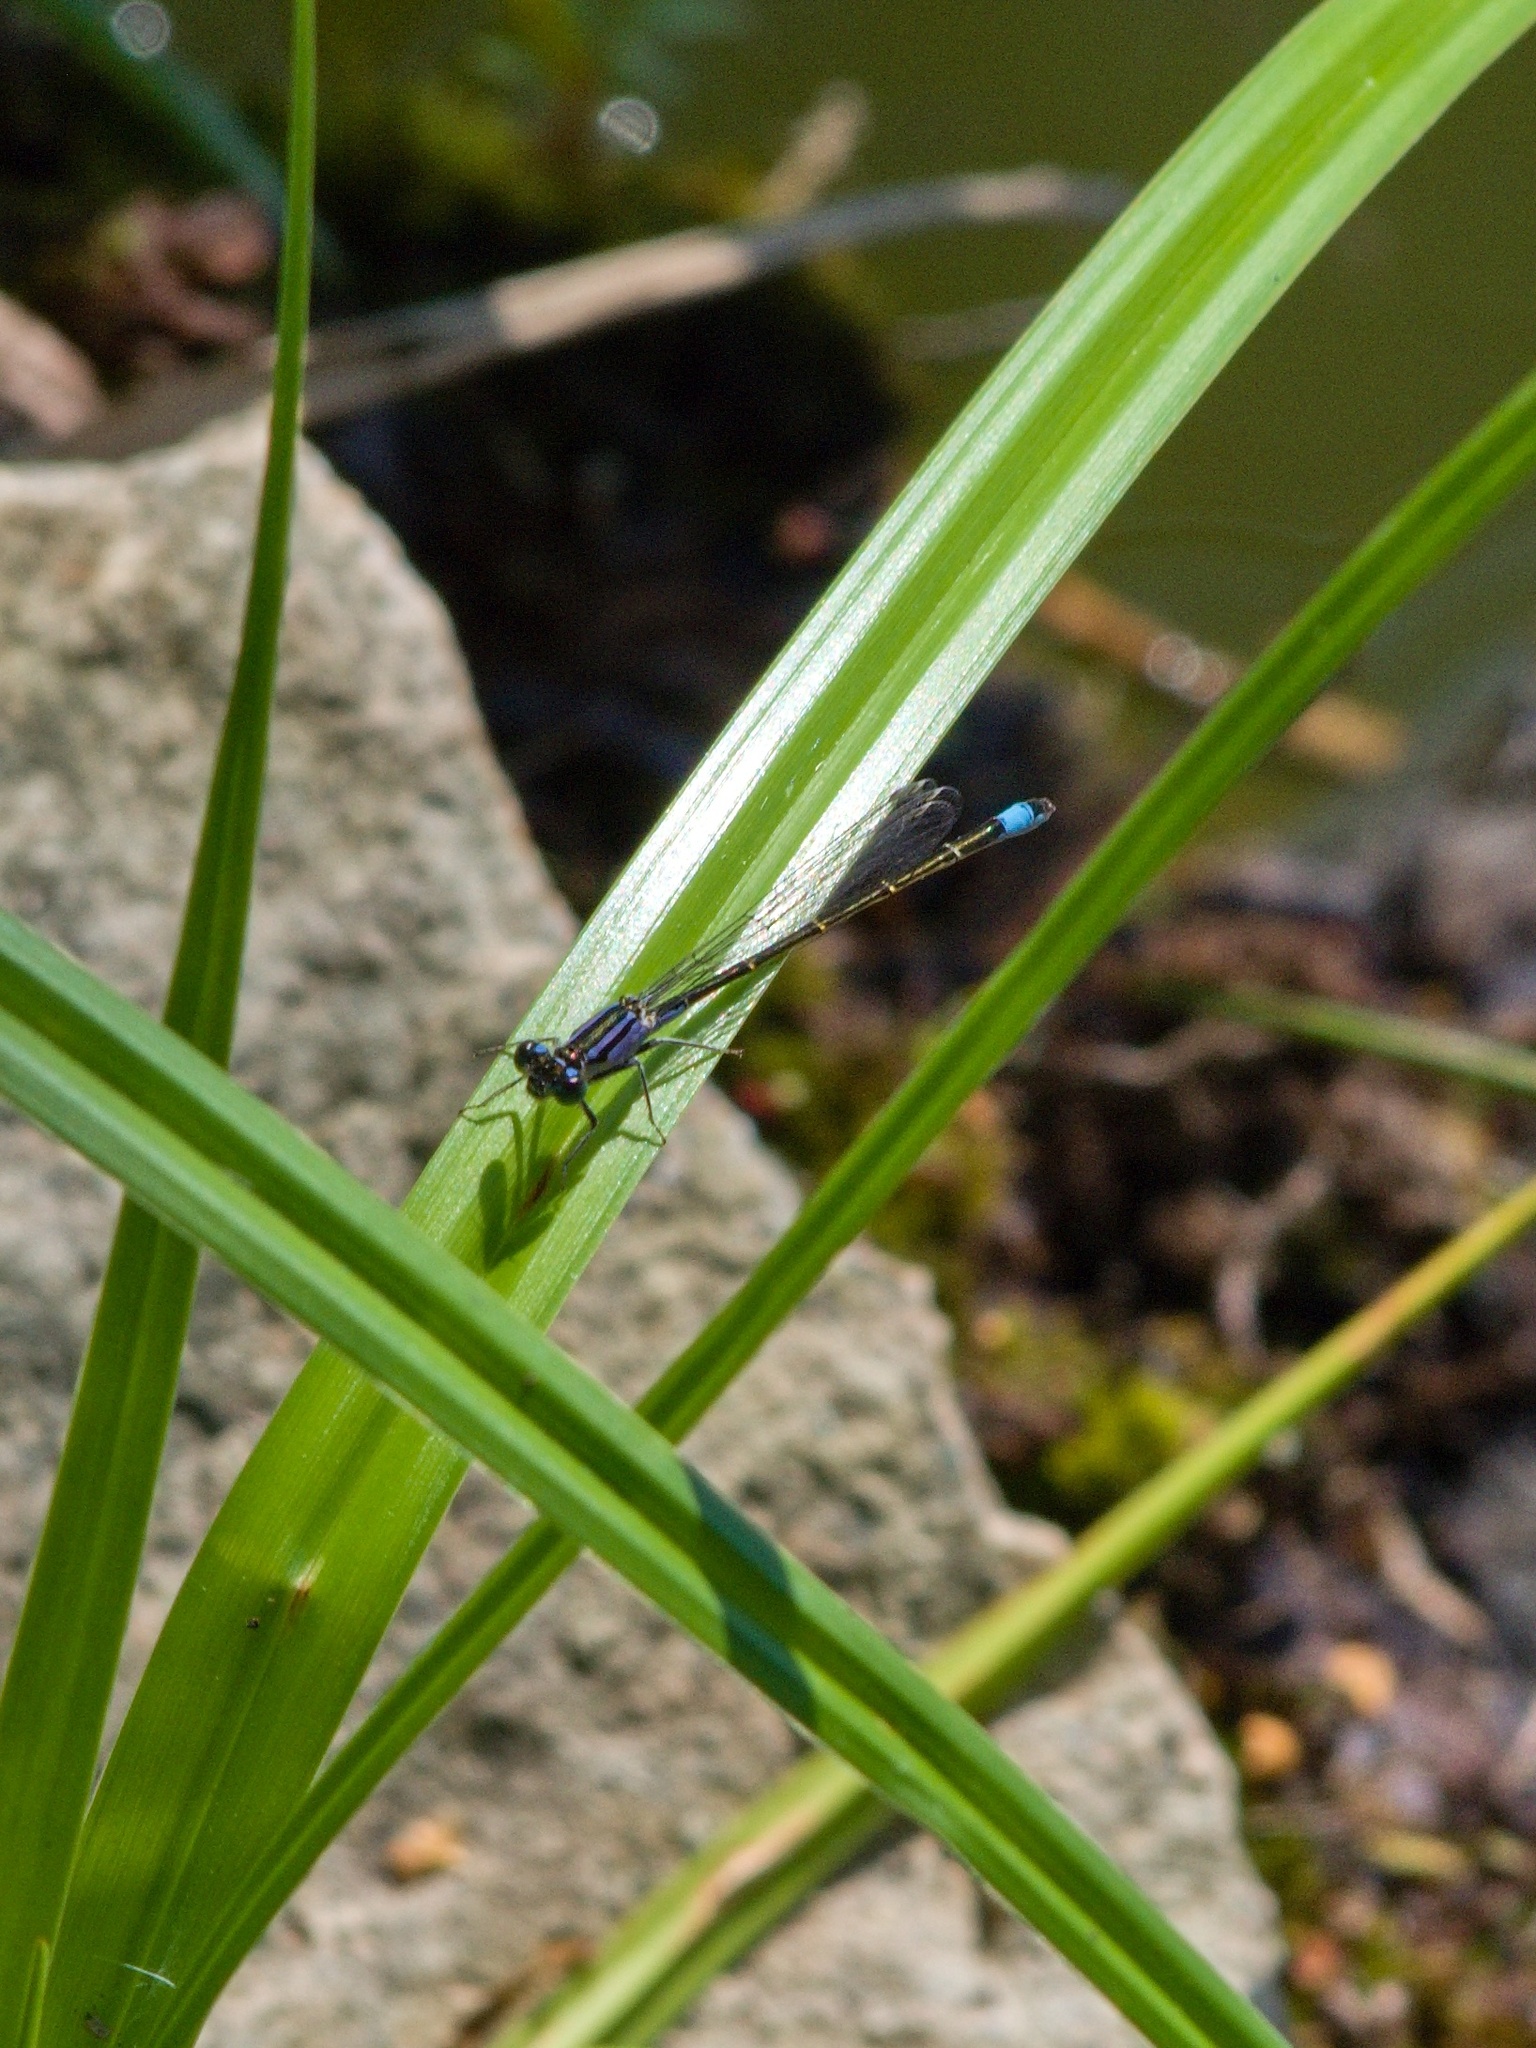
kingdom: Animalia
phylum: Arthropoda
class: Insecta
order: Odonata
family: Coenagrionidae
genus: Ischnura
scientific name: Ischnura elegans
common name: Blue-tailed damselfly
